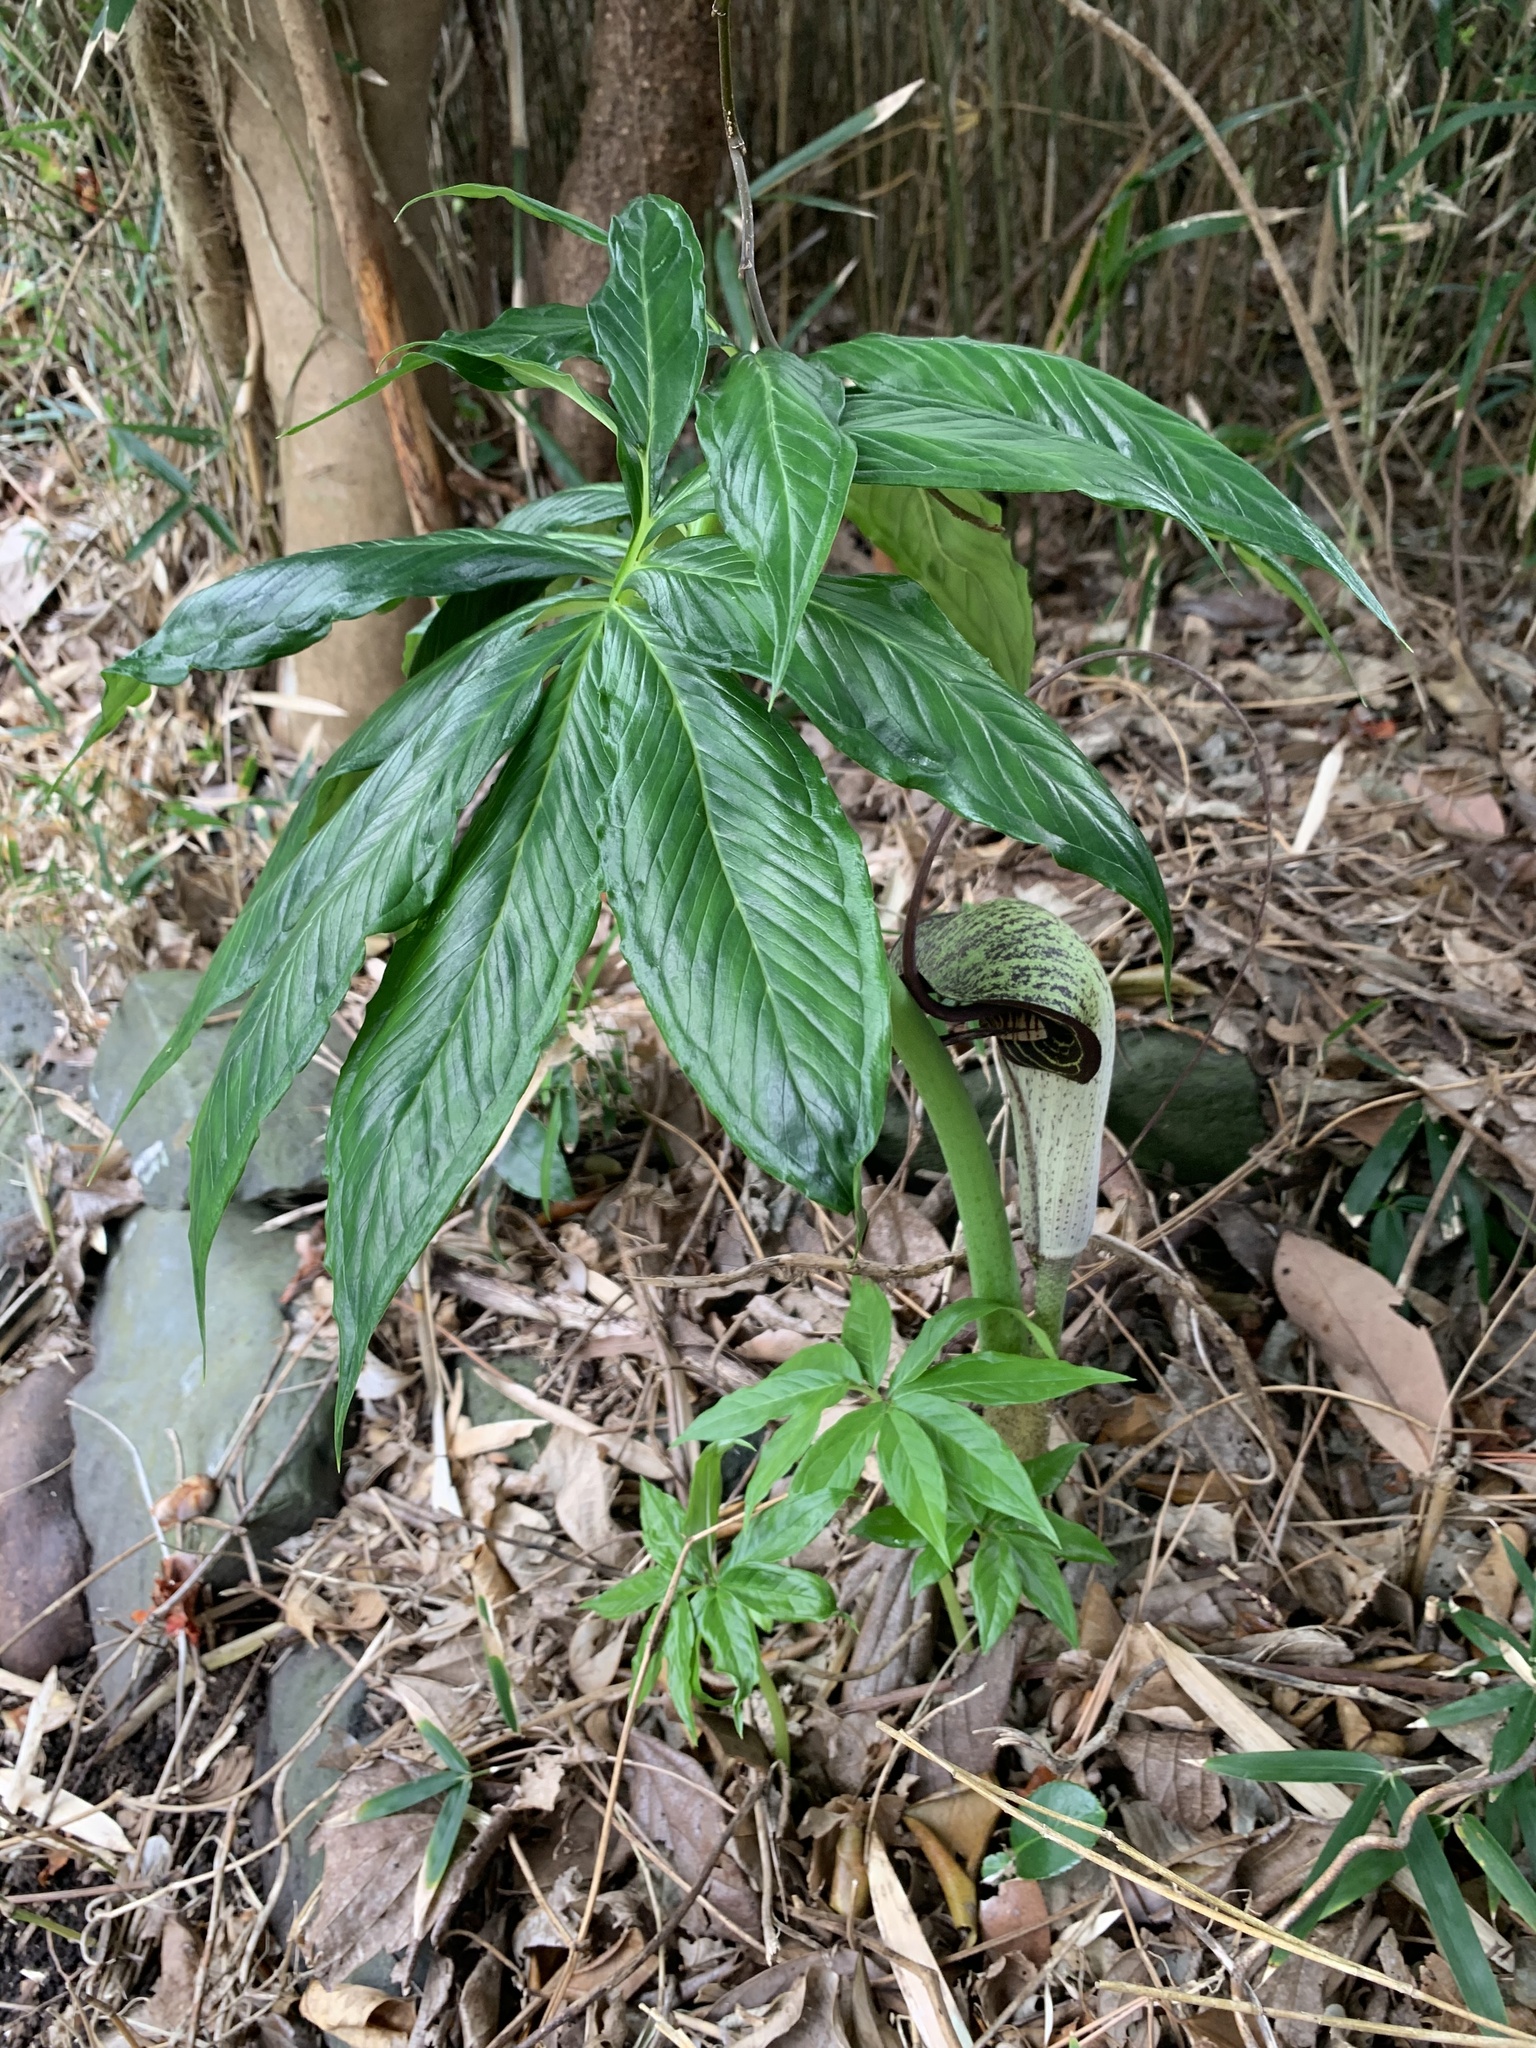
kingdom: Plantae
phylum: Tracheophyta
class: Liliopsida
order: Alismatales
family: Araceae
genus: Arisaema
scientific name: Arisaema thunbergii
